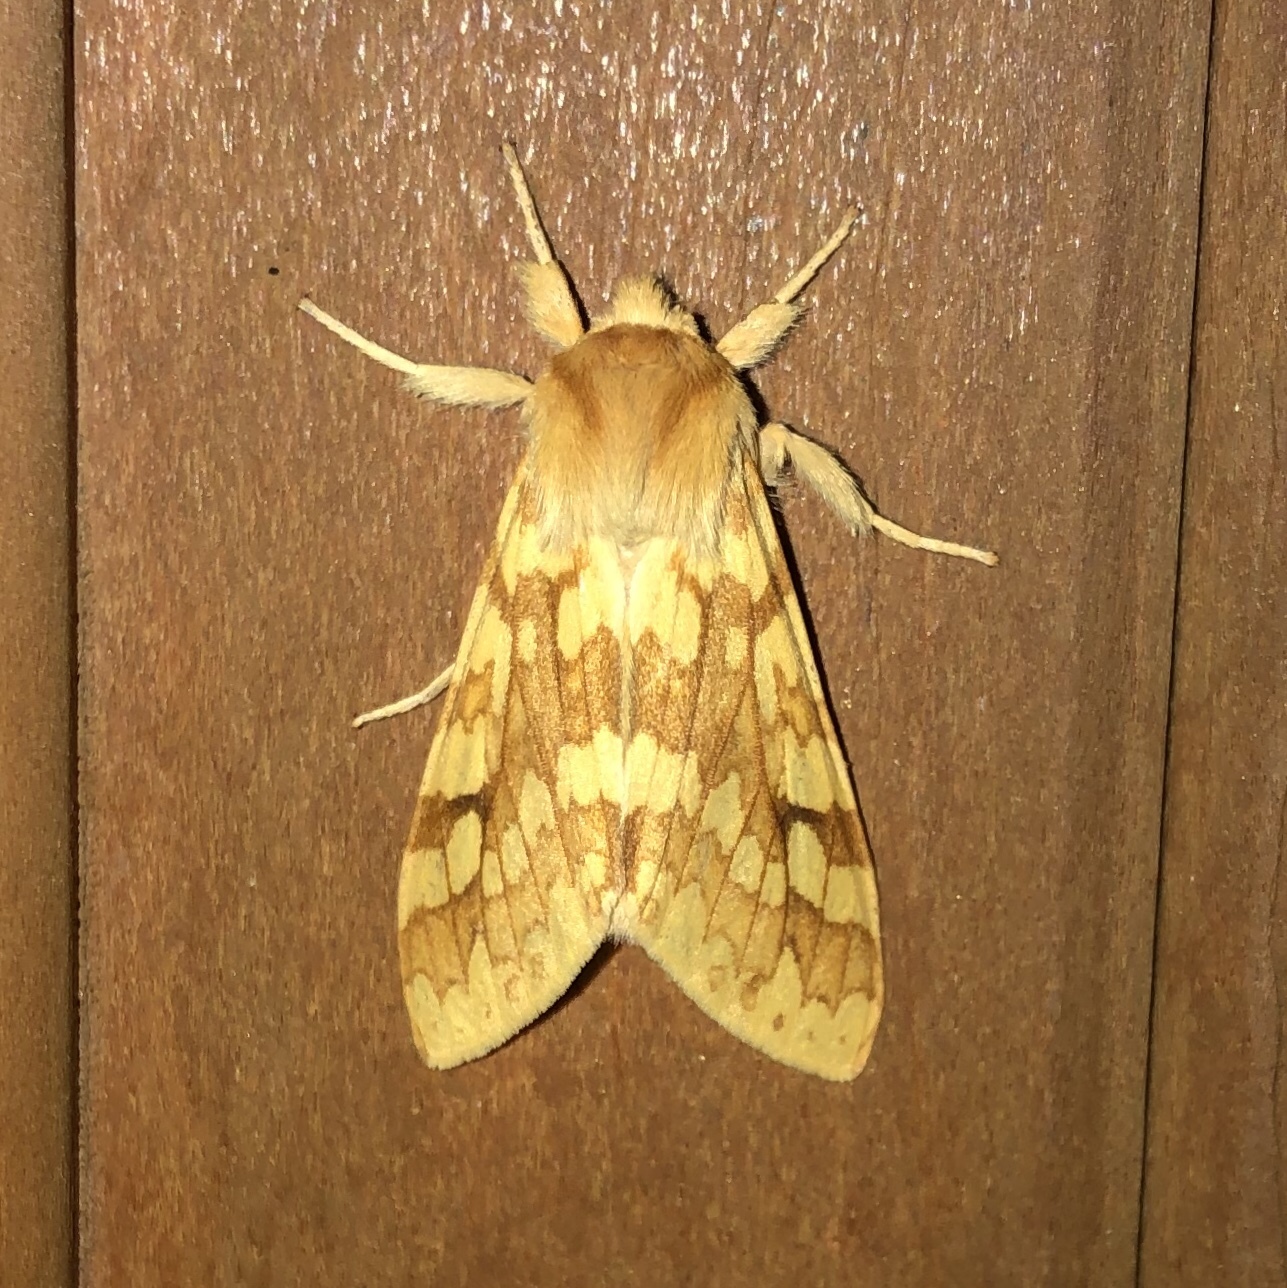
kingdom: Animalia
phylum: Arthropoda
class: Insecta
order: Lepidoptera
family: Erebidae
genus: Lophocampa
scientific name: Lophocampa maculata
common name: Spotted tussock moth
